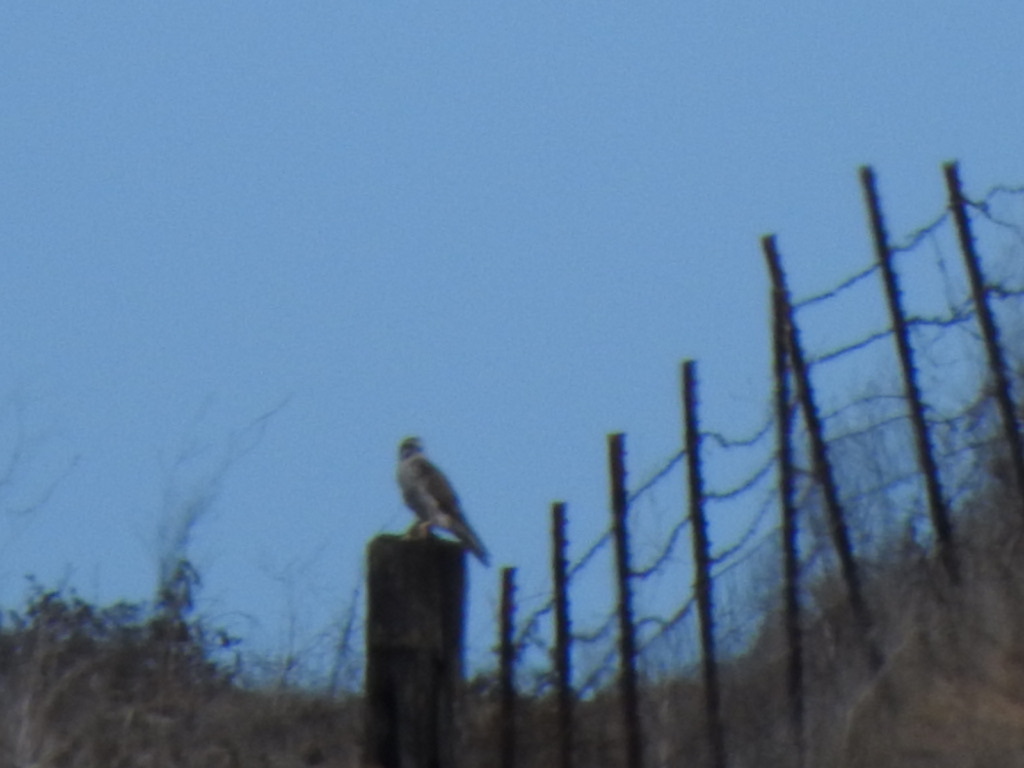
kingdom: Animalia
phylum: Chordata
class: Aves
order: Falconiformes
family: Falconidae
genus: Falco
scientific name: Falco mexicanus
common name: Prairie falcon
